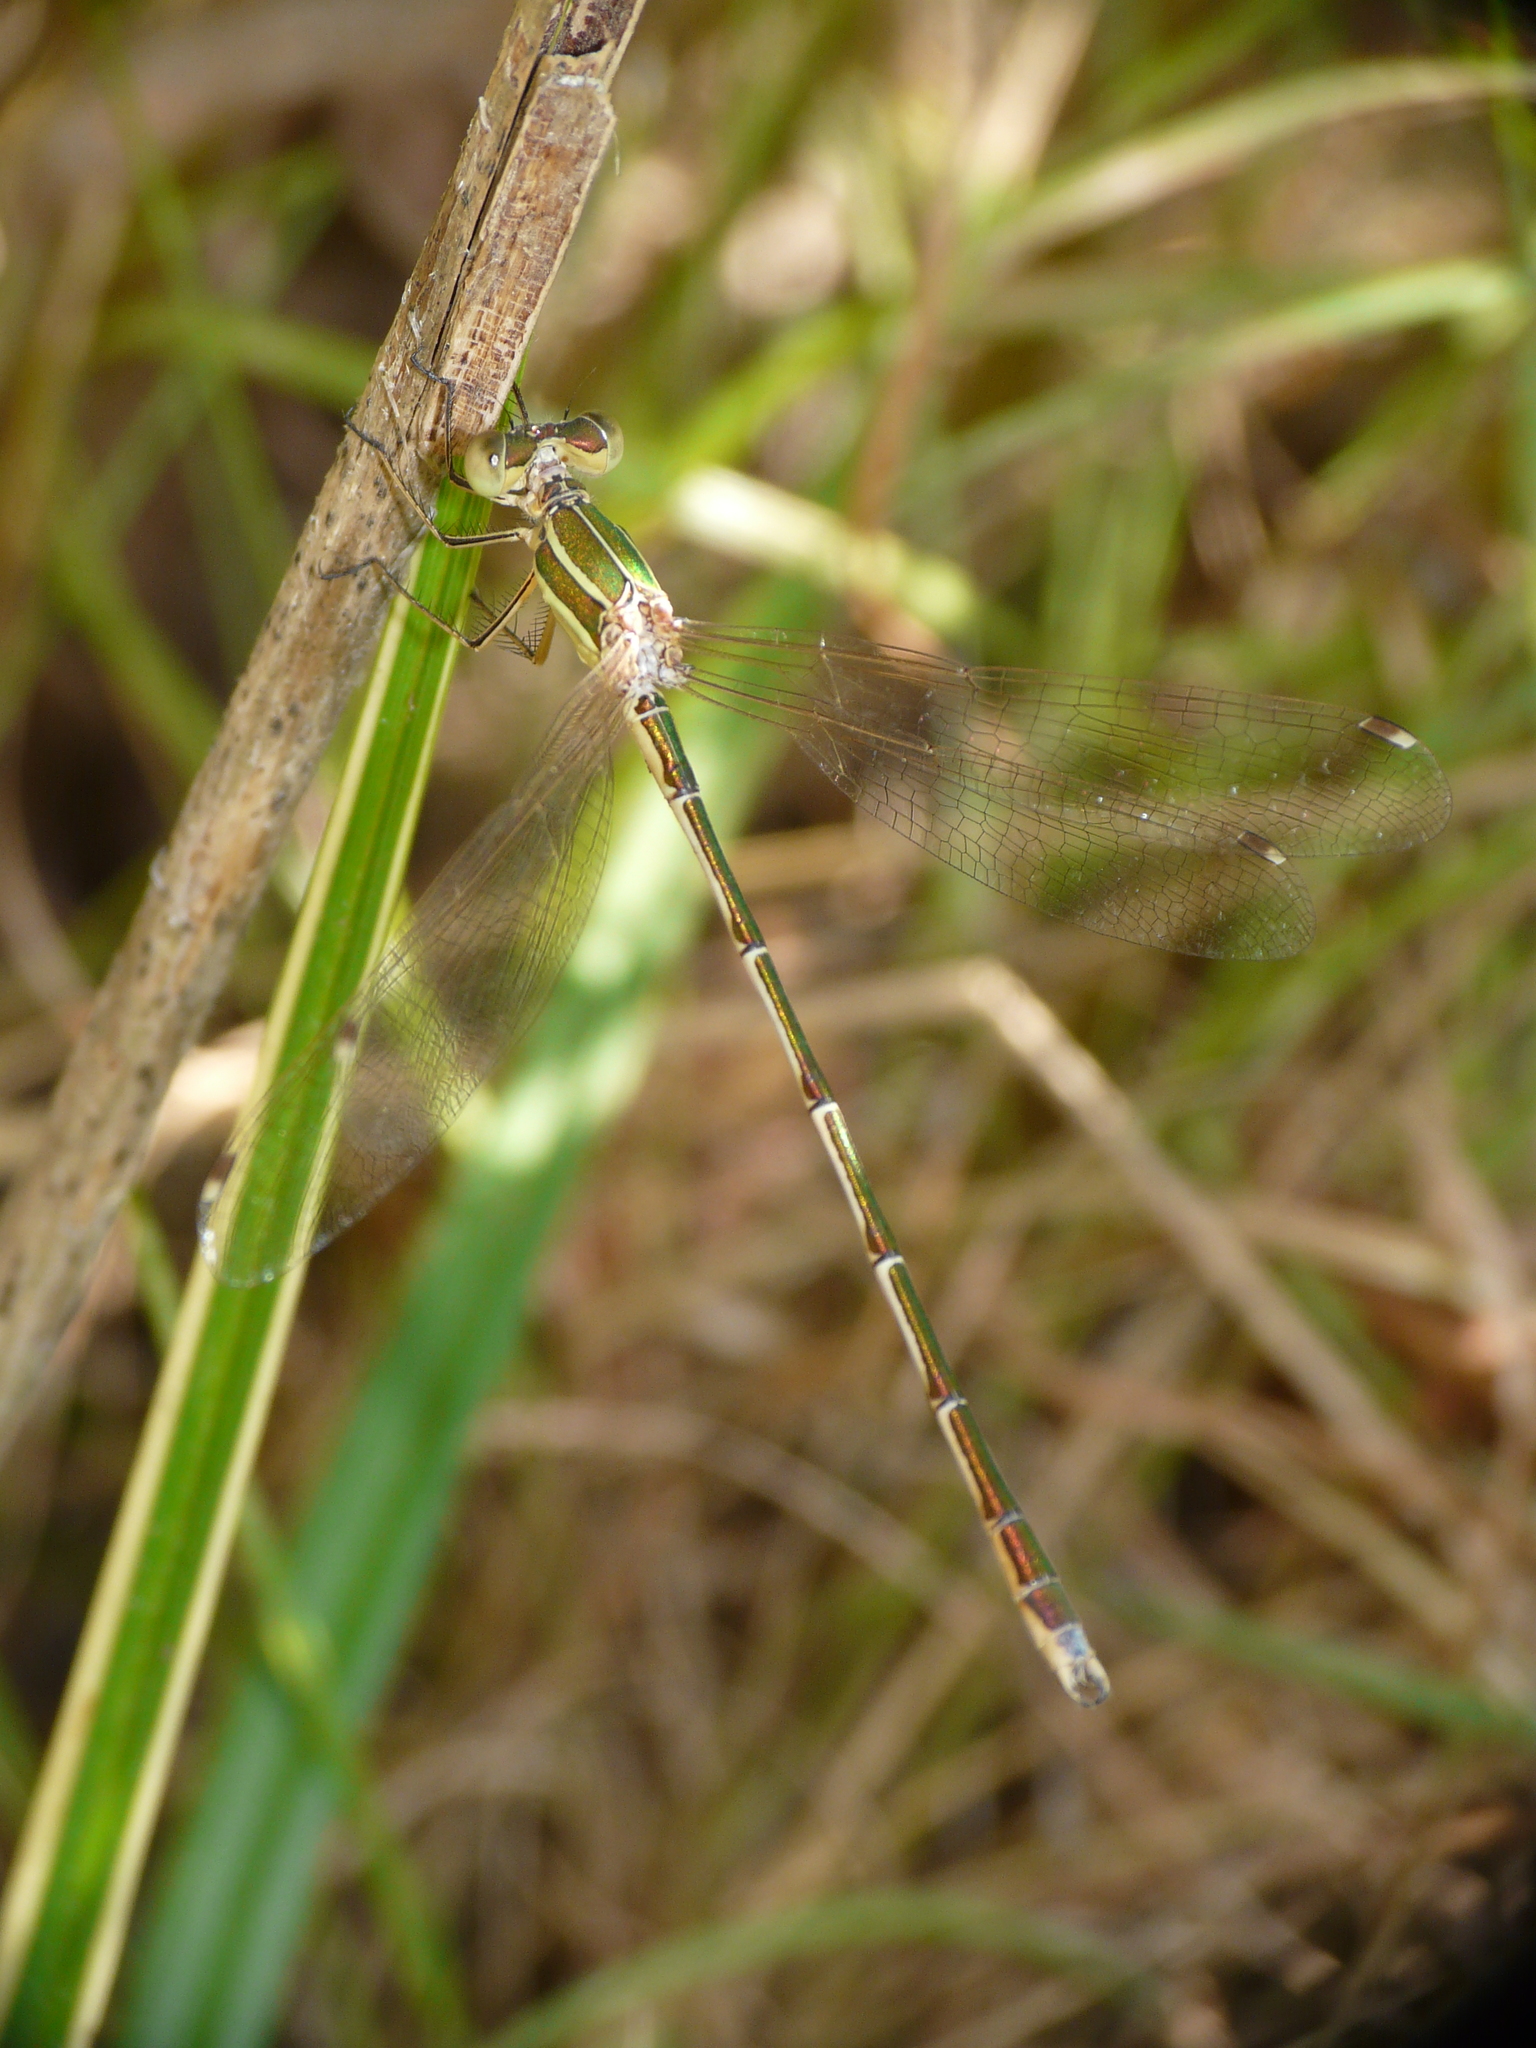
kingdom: Animalia
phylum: Arthropoda
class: Insecta
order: Odonata
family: Lestidae
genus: Lestes
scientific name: Lestes barbarus
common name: Migrant spreadwing
